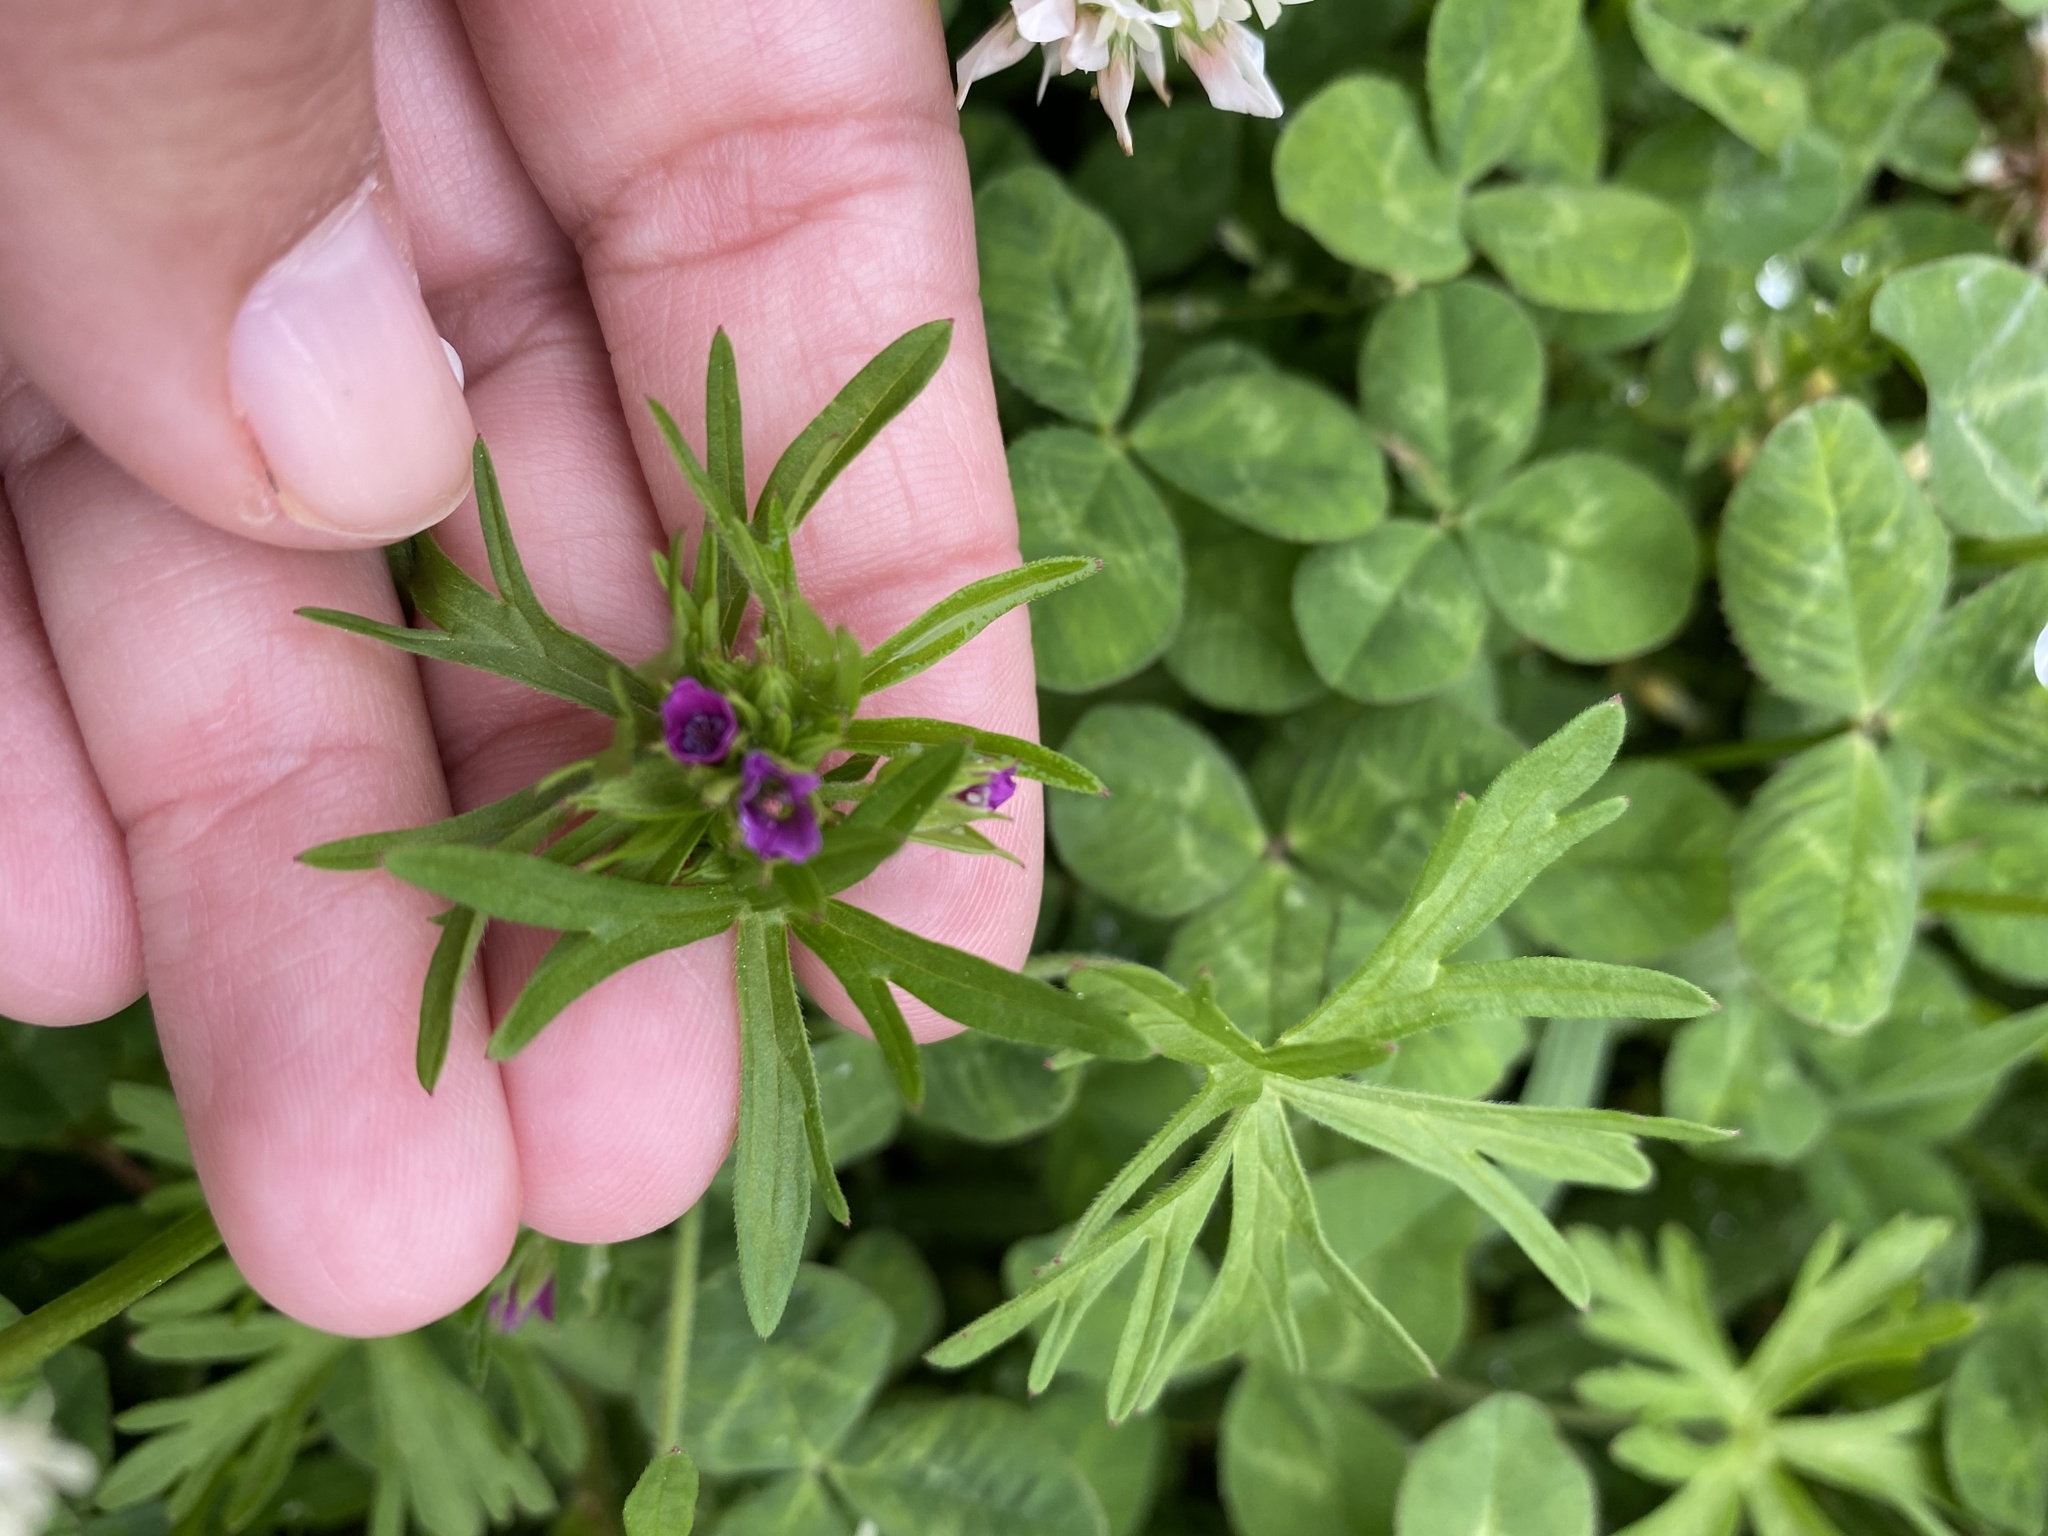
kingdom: Plantae
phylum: Tracheophyta
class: Magnoliopsida
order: Geraniales
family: Geraniaceae
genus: Geranium
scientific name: Geranium dissectum
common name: Cut-leaved crane's-bill
